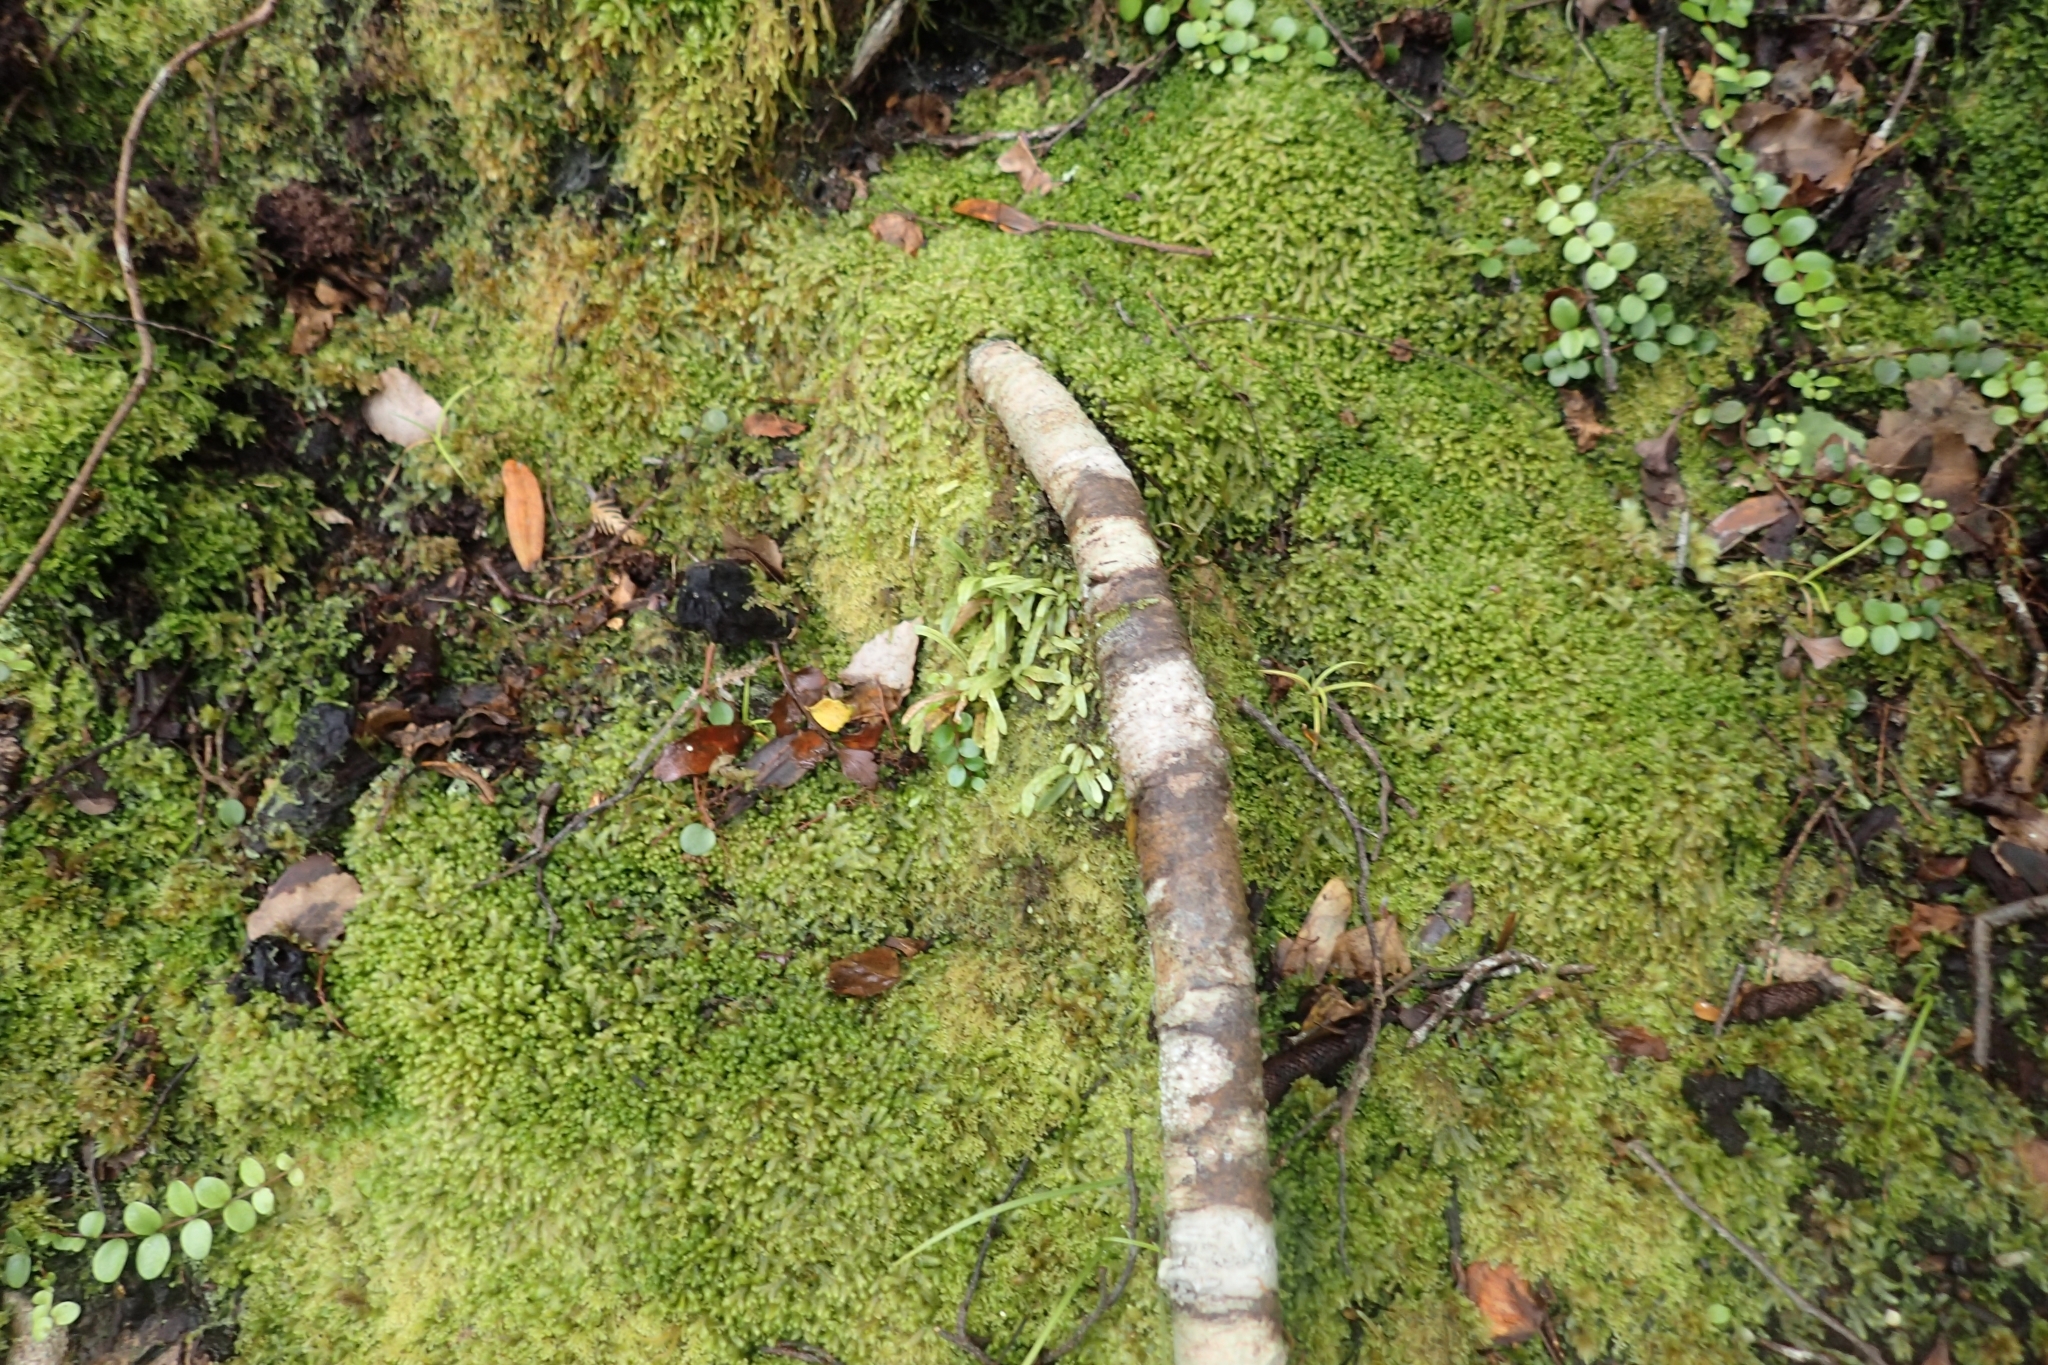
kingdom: Plantae
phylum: Tracheophyta
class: Polypodiopsida
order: Polypodiales
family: Polypodiaceae
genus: Notogrammitis
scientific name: Notogrammitis ciliata
